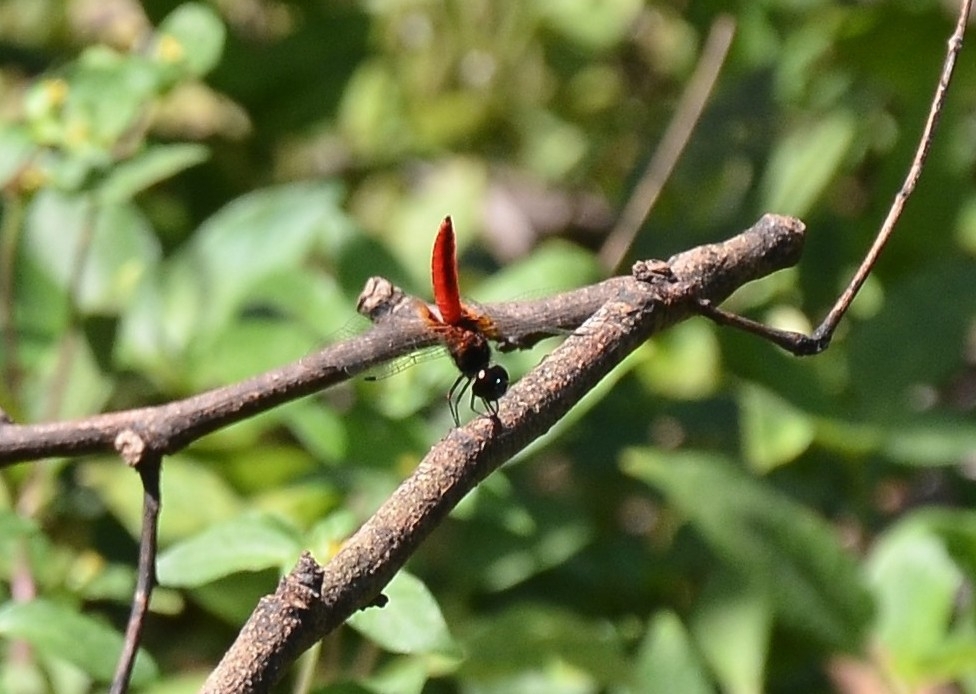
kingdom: Animalia
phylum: Arthropoda
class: Insecta
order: Odonata
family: Libellulidae
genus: Aethriamanta
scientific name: Aethriamanta brevipennis
